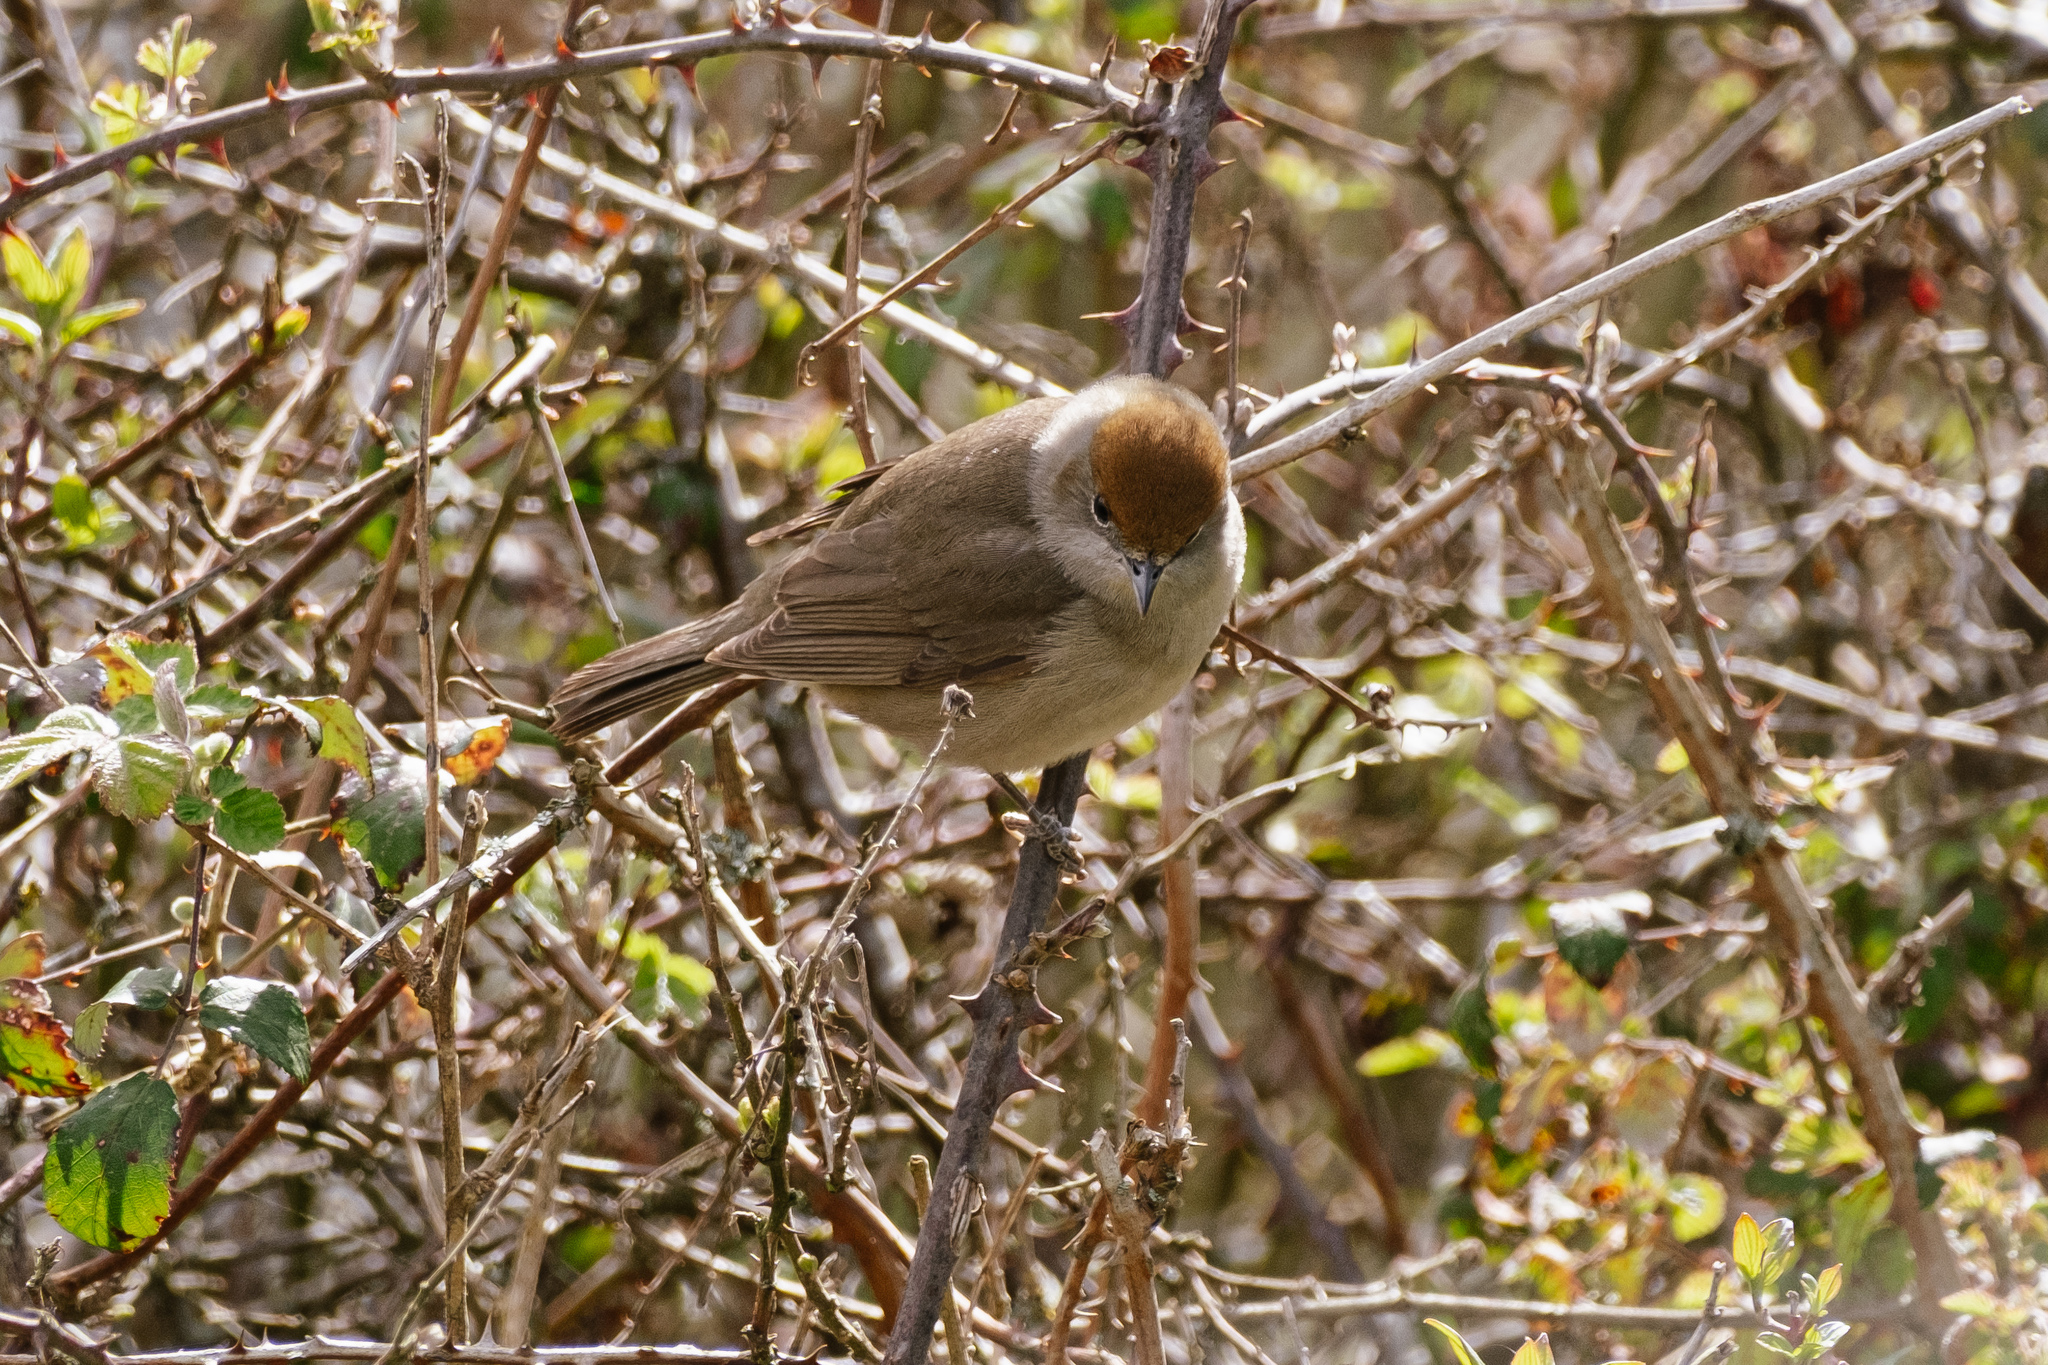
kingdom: Animalia
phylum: Chordata
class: Aves
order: Passeriformes
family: Sylviidae
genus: Sylvia
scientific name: Sylvia atricapilla
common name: Eurasian blackcap
